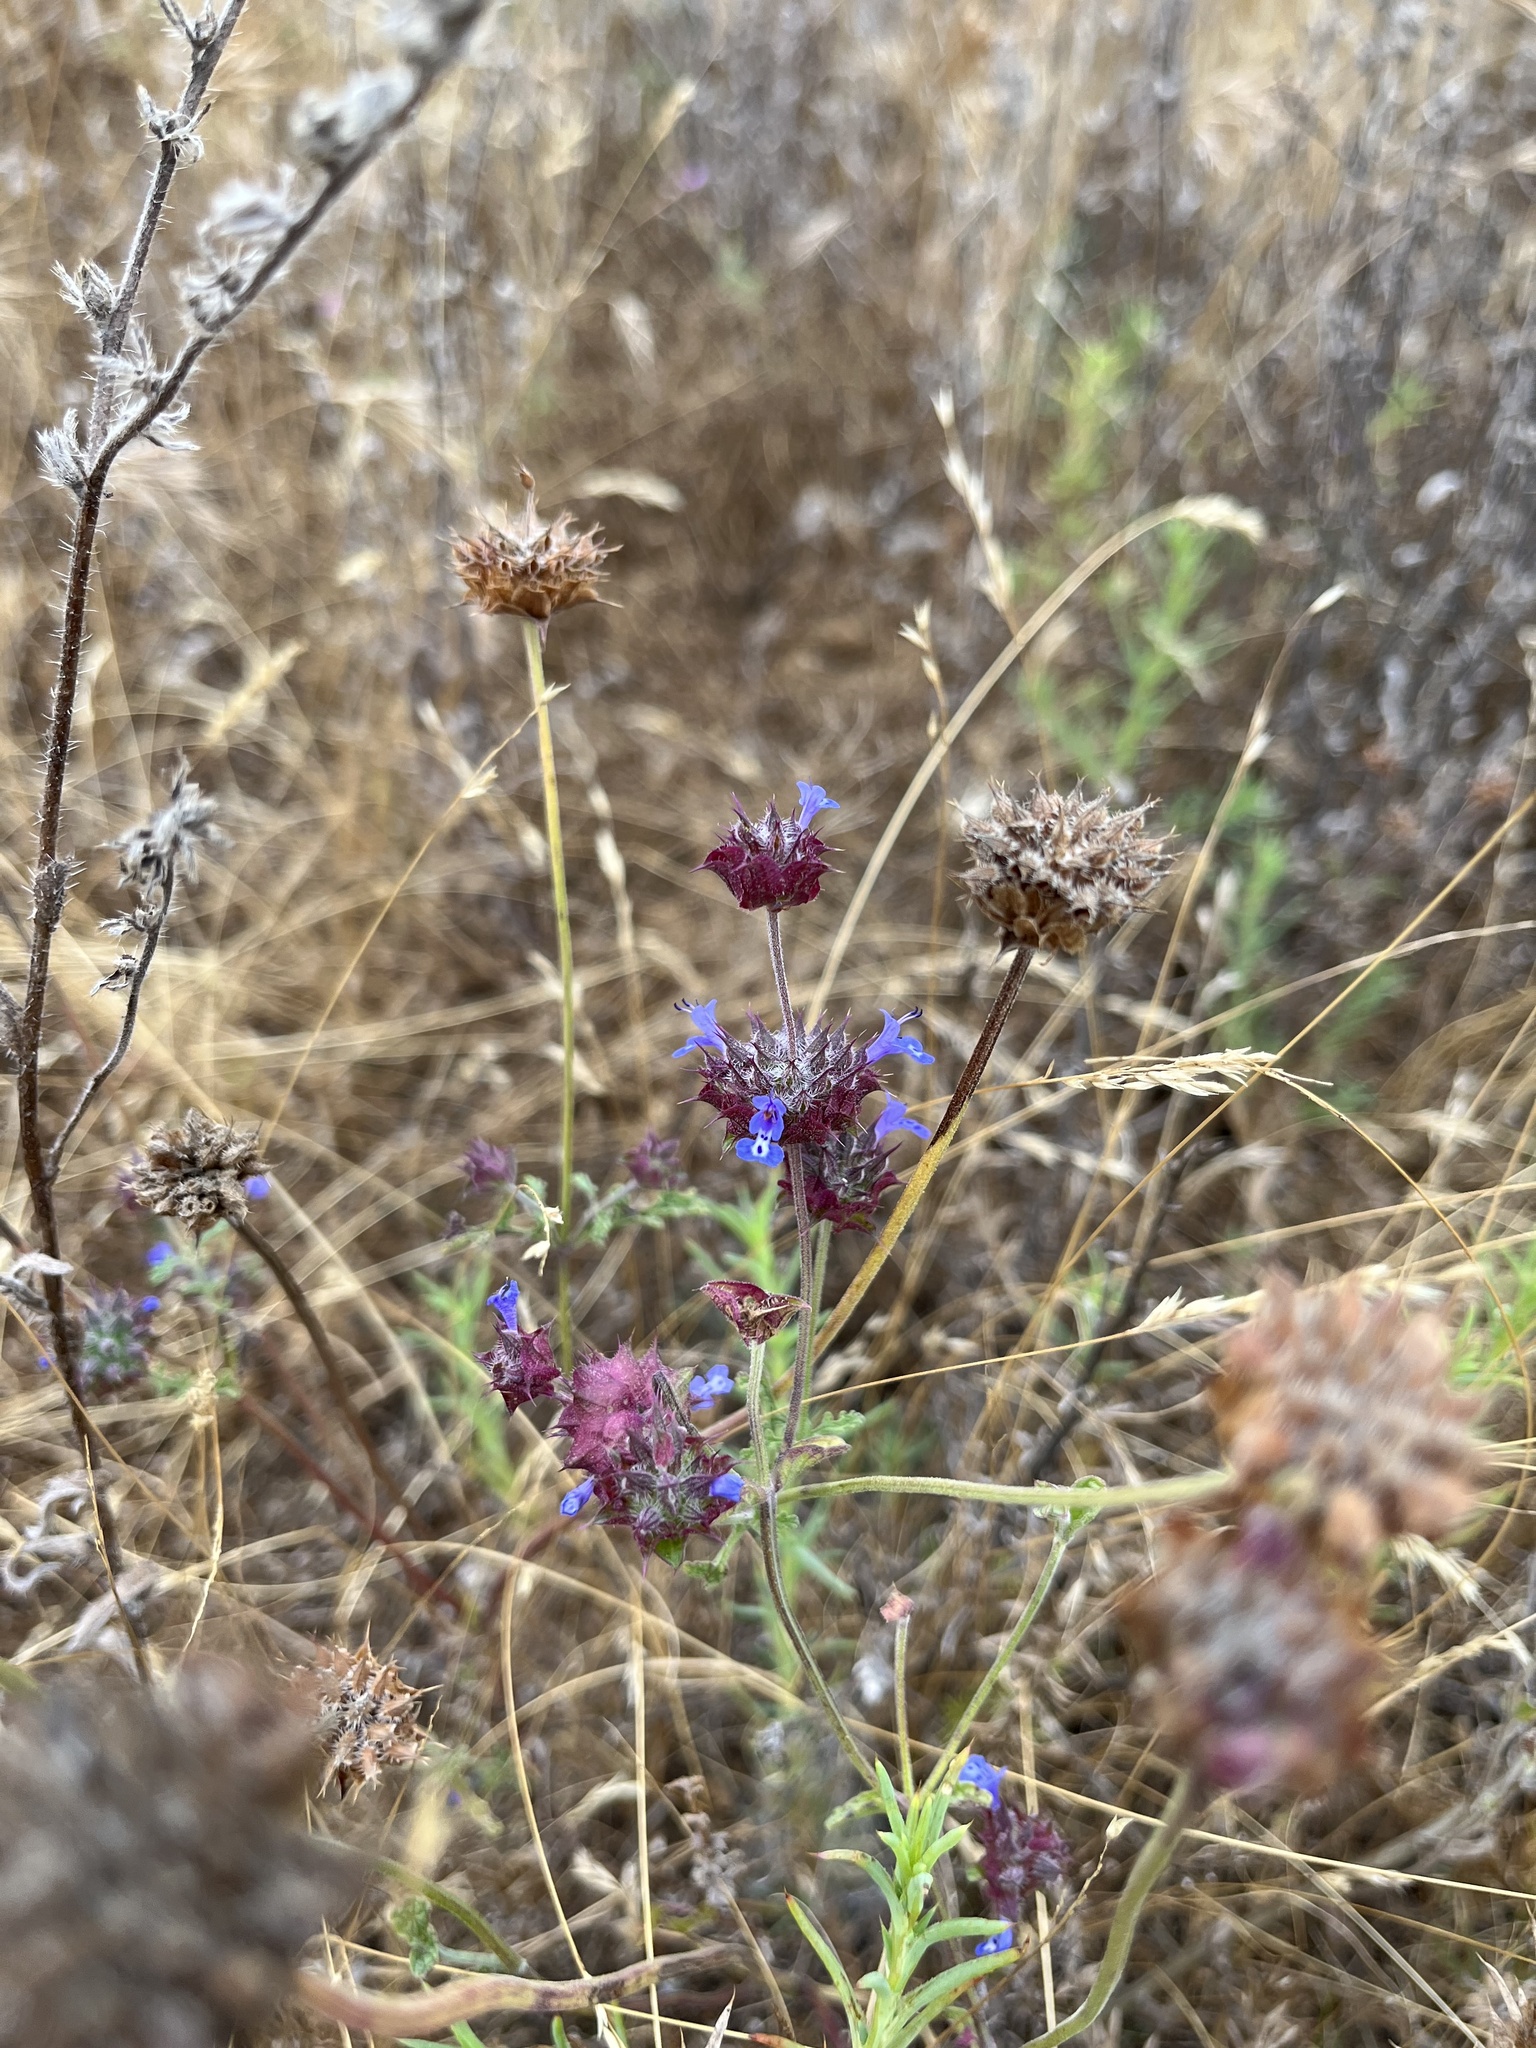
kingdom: Plantae
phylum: Tracheophyta
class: Magnoliopsida
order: Lamiales
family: Lamiaceae
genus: Salvia
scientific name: Salvia columbariae
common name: Chia
